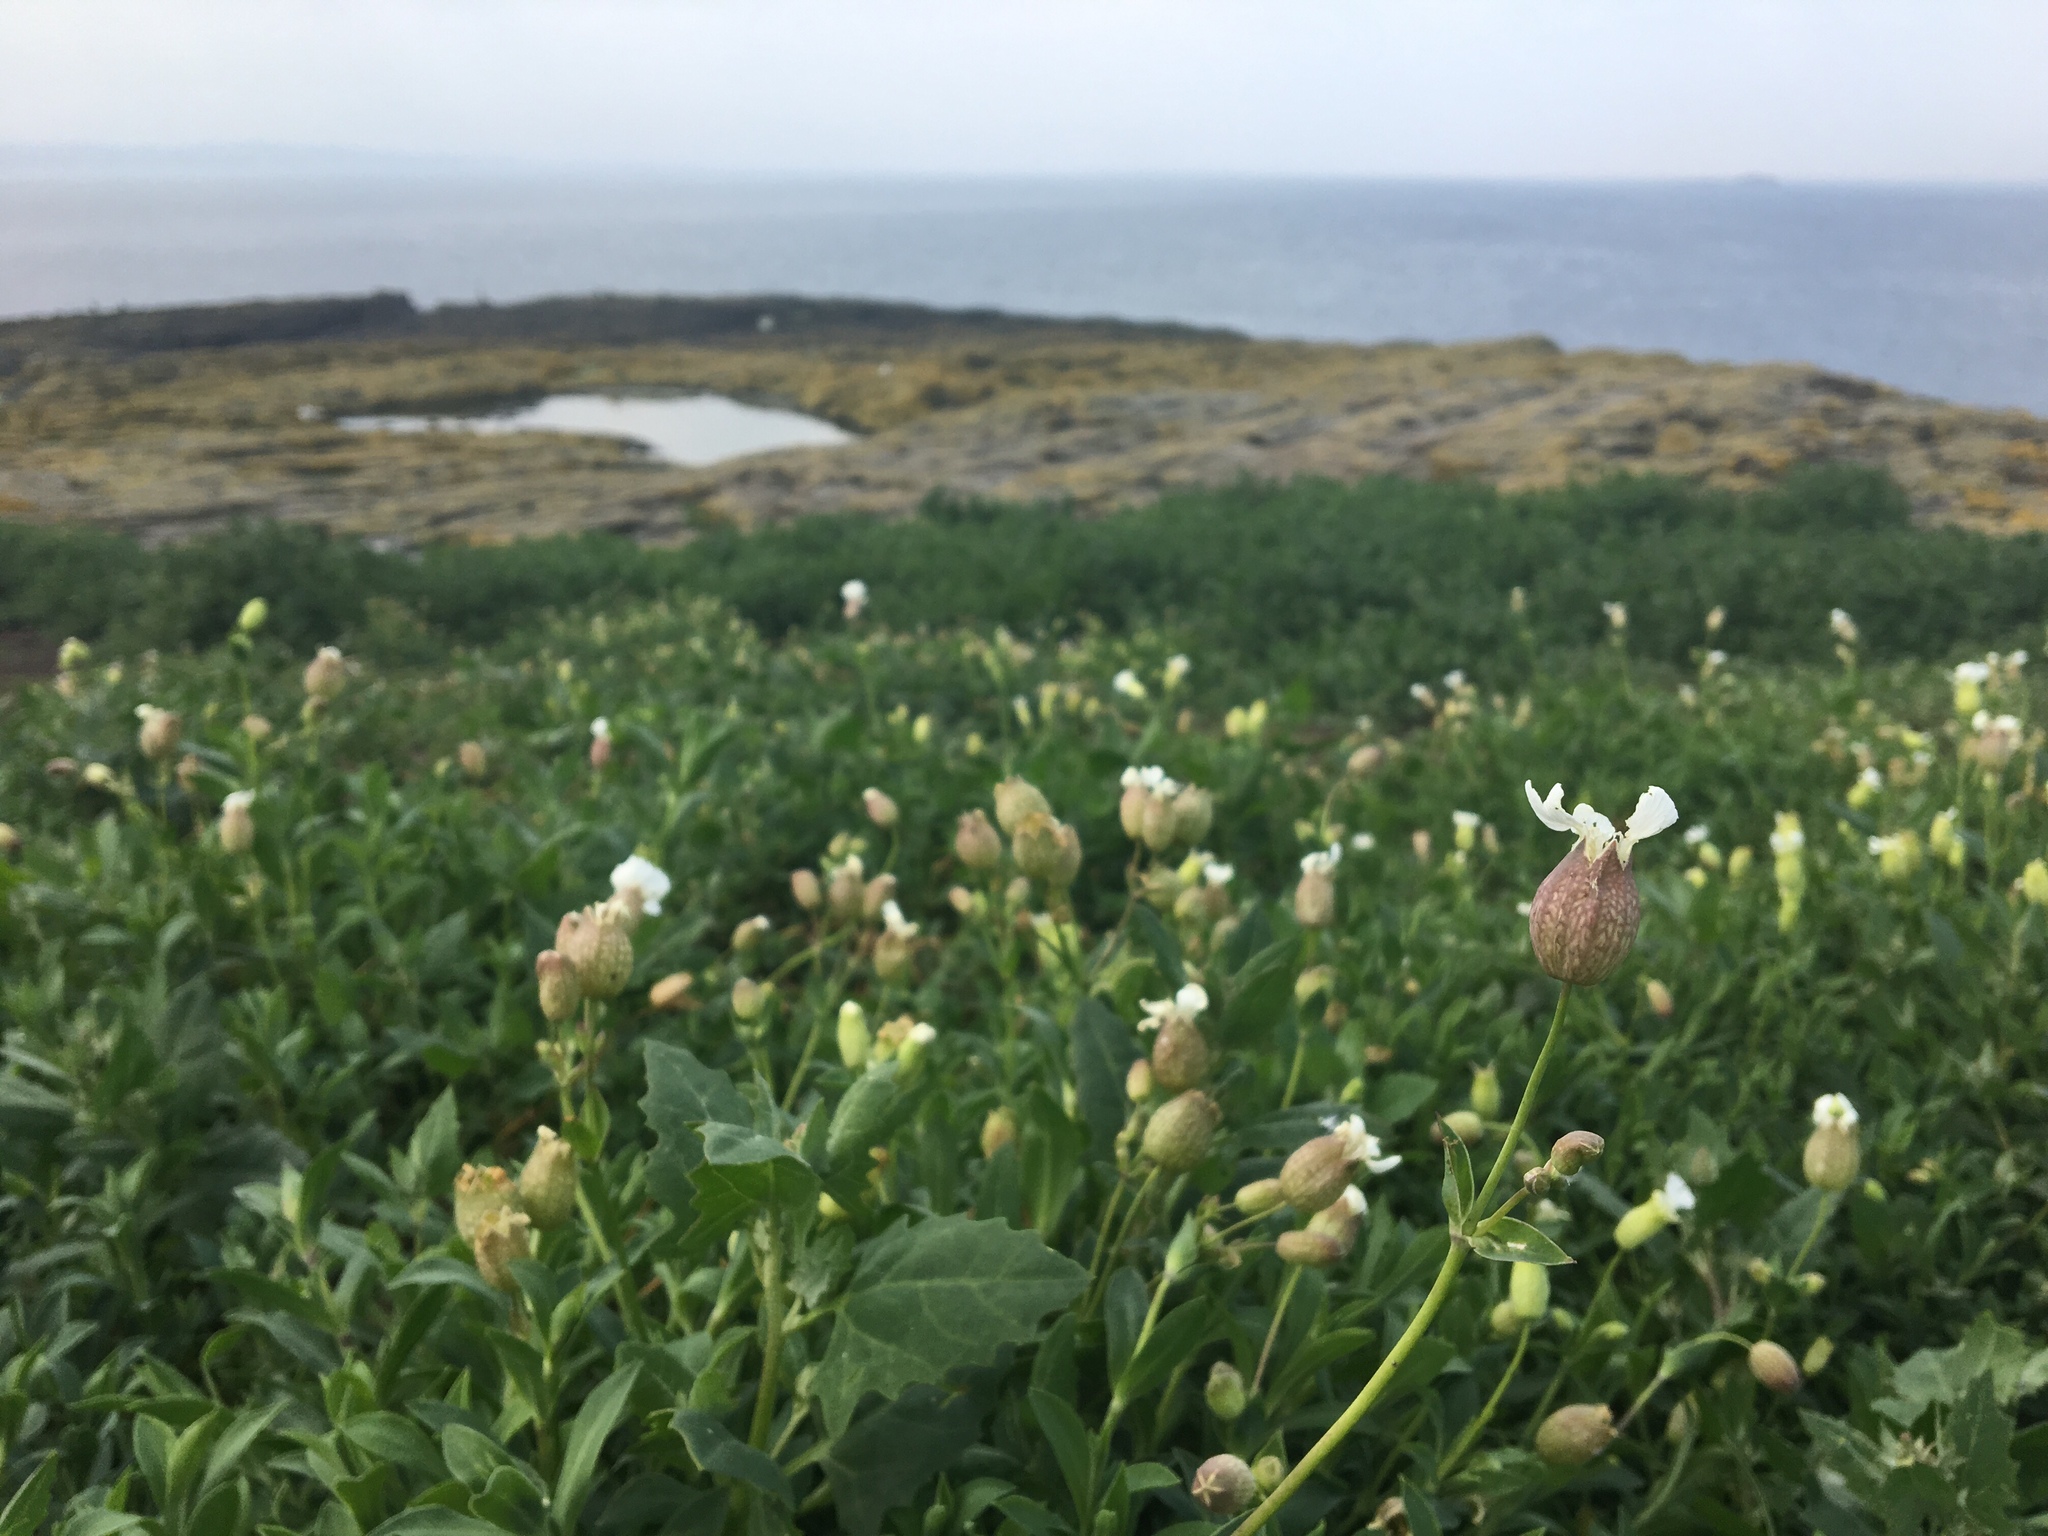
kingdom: Plantae
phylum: Tracheophyta
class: Magnoliopsida
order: Caryophyllales
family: Caryophyllaceae
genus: Silene
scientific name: Silene uniflora
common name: Sea campion
